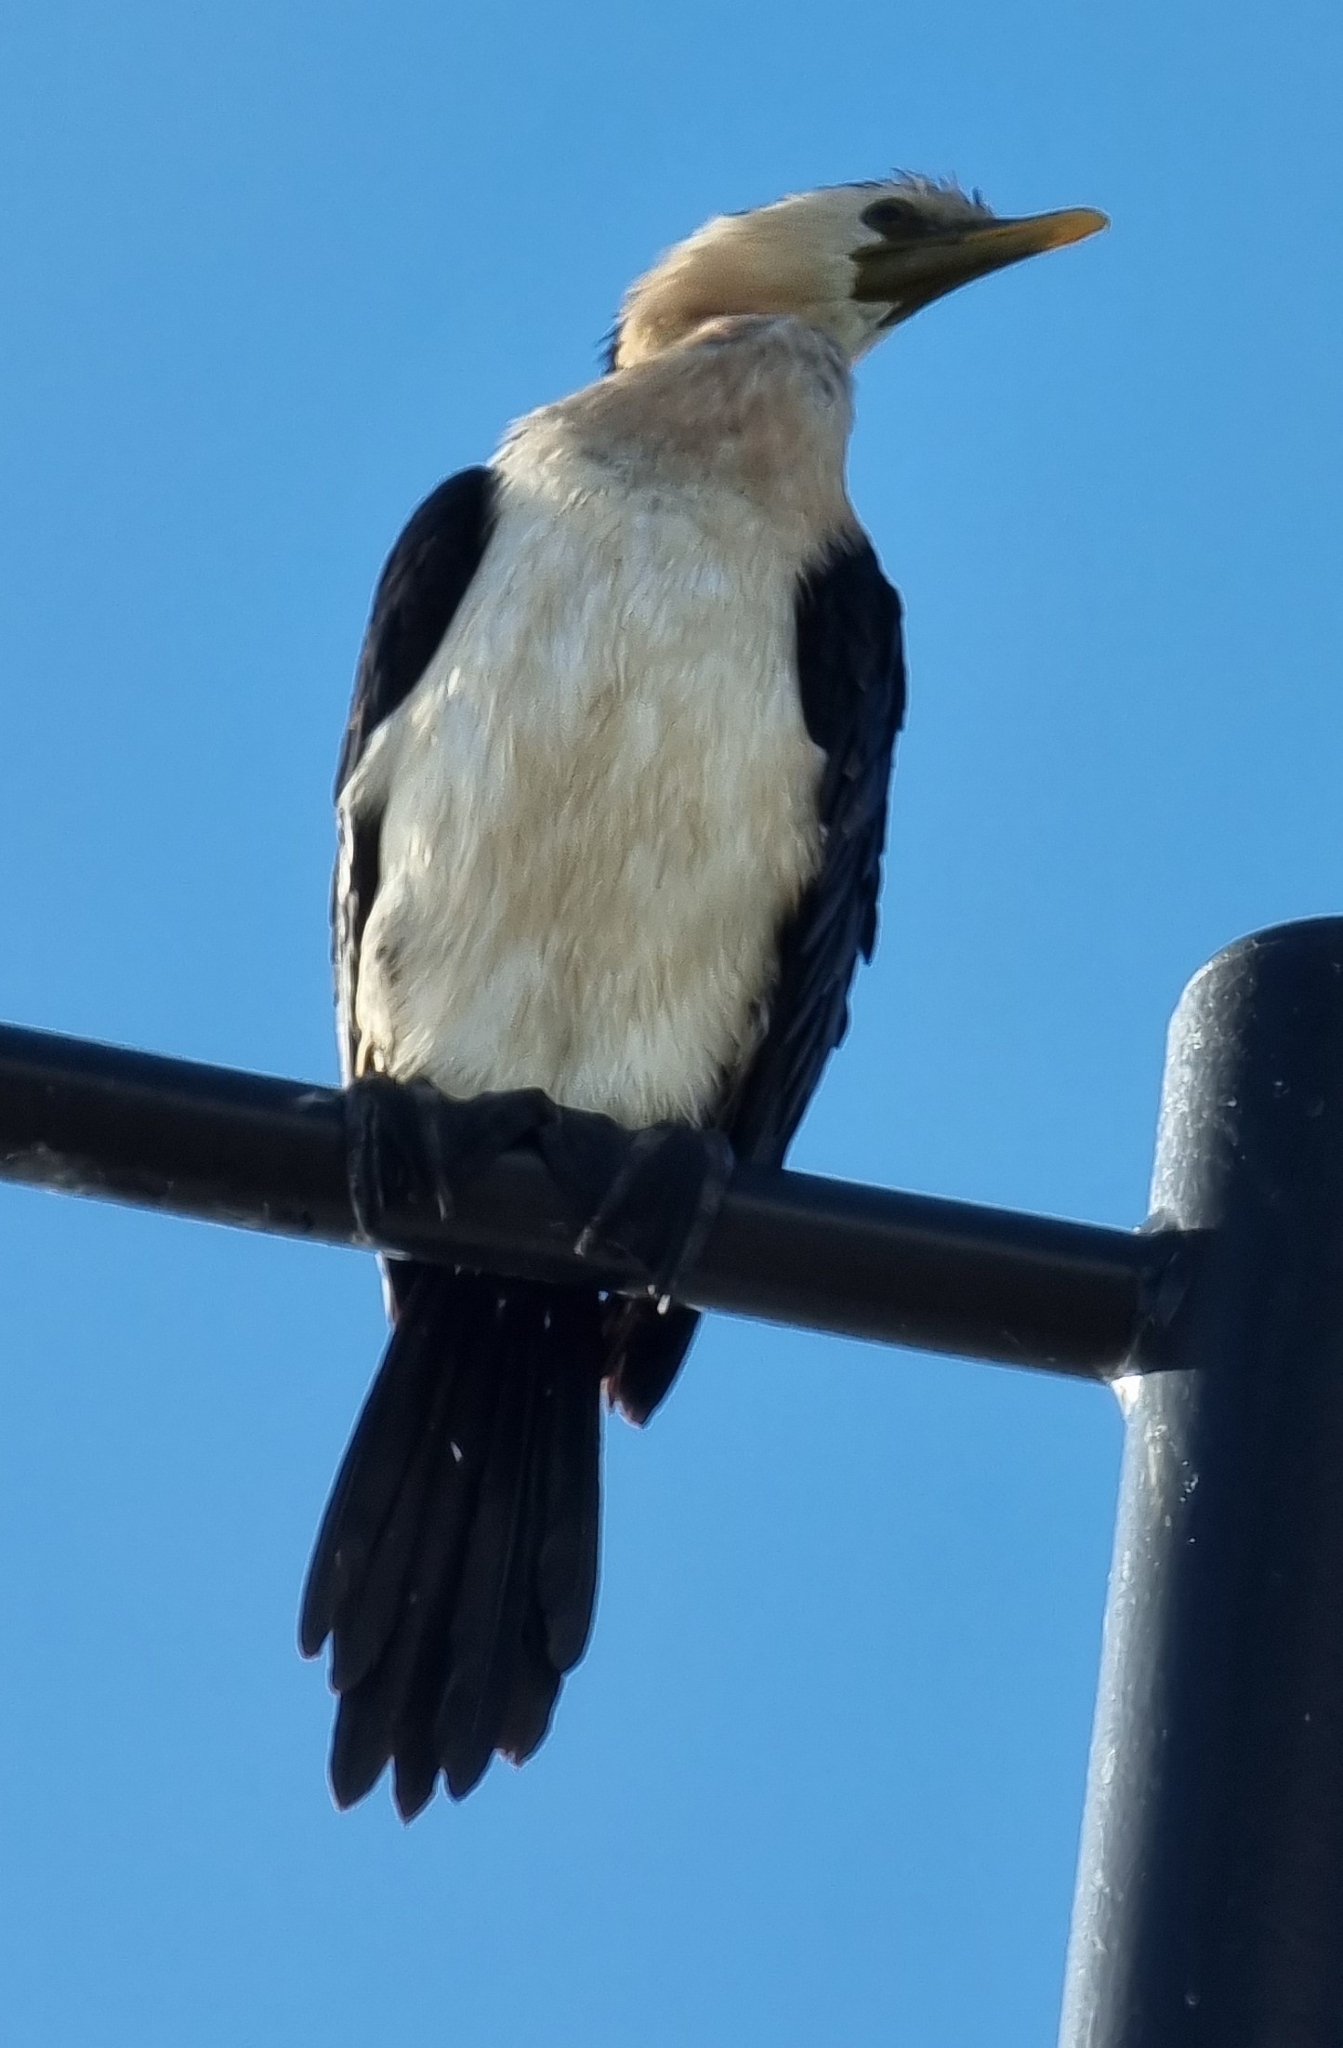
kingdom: Animalia
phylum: Chordata
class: Aves
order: Suliformes
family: Phalacrocoracidae
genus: Microcarbo
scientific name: Microcarbo melanoleucos
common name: Little pied cormorant
